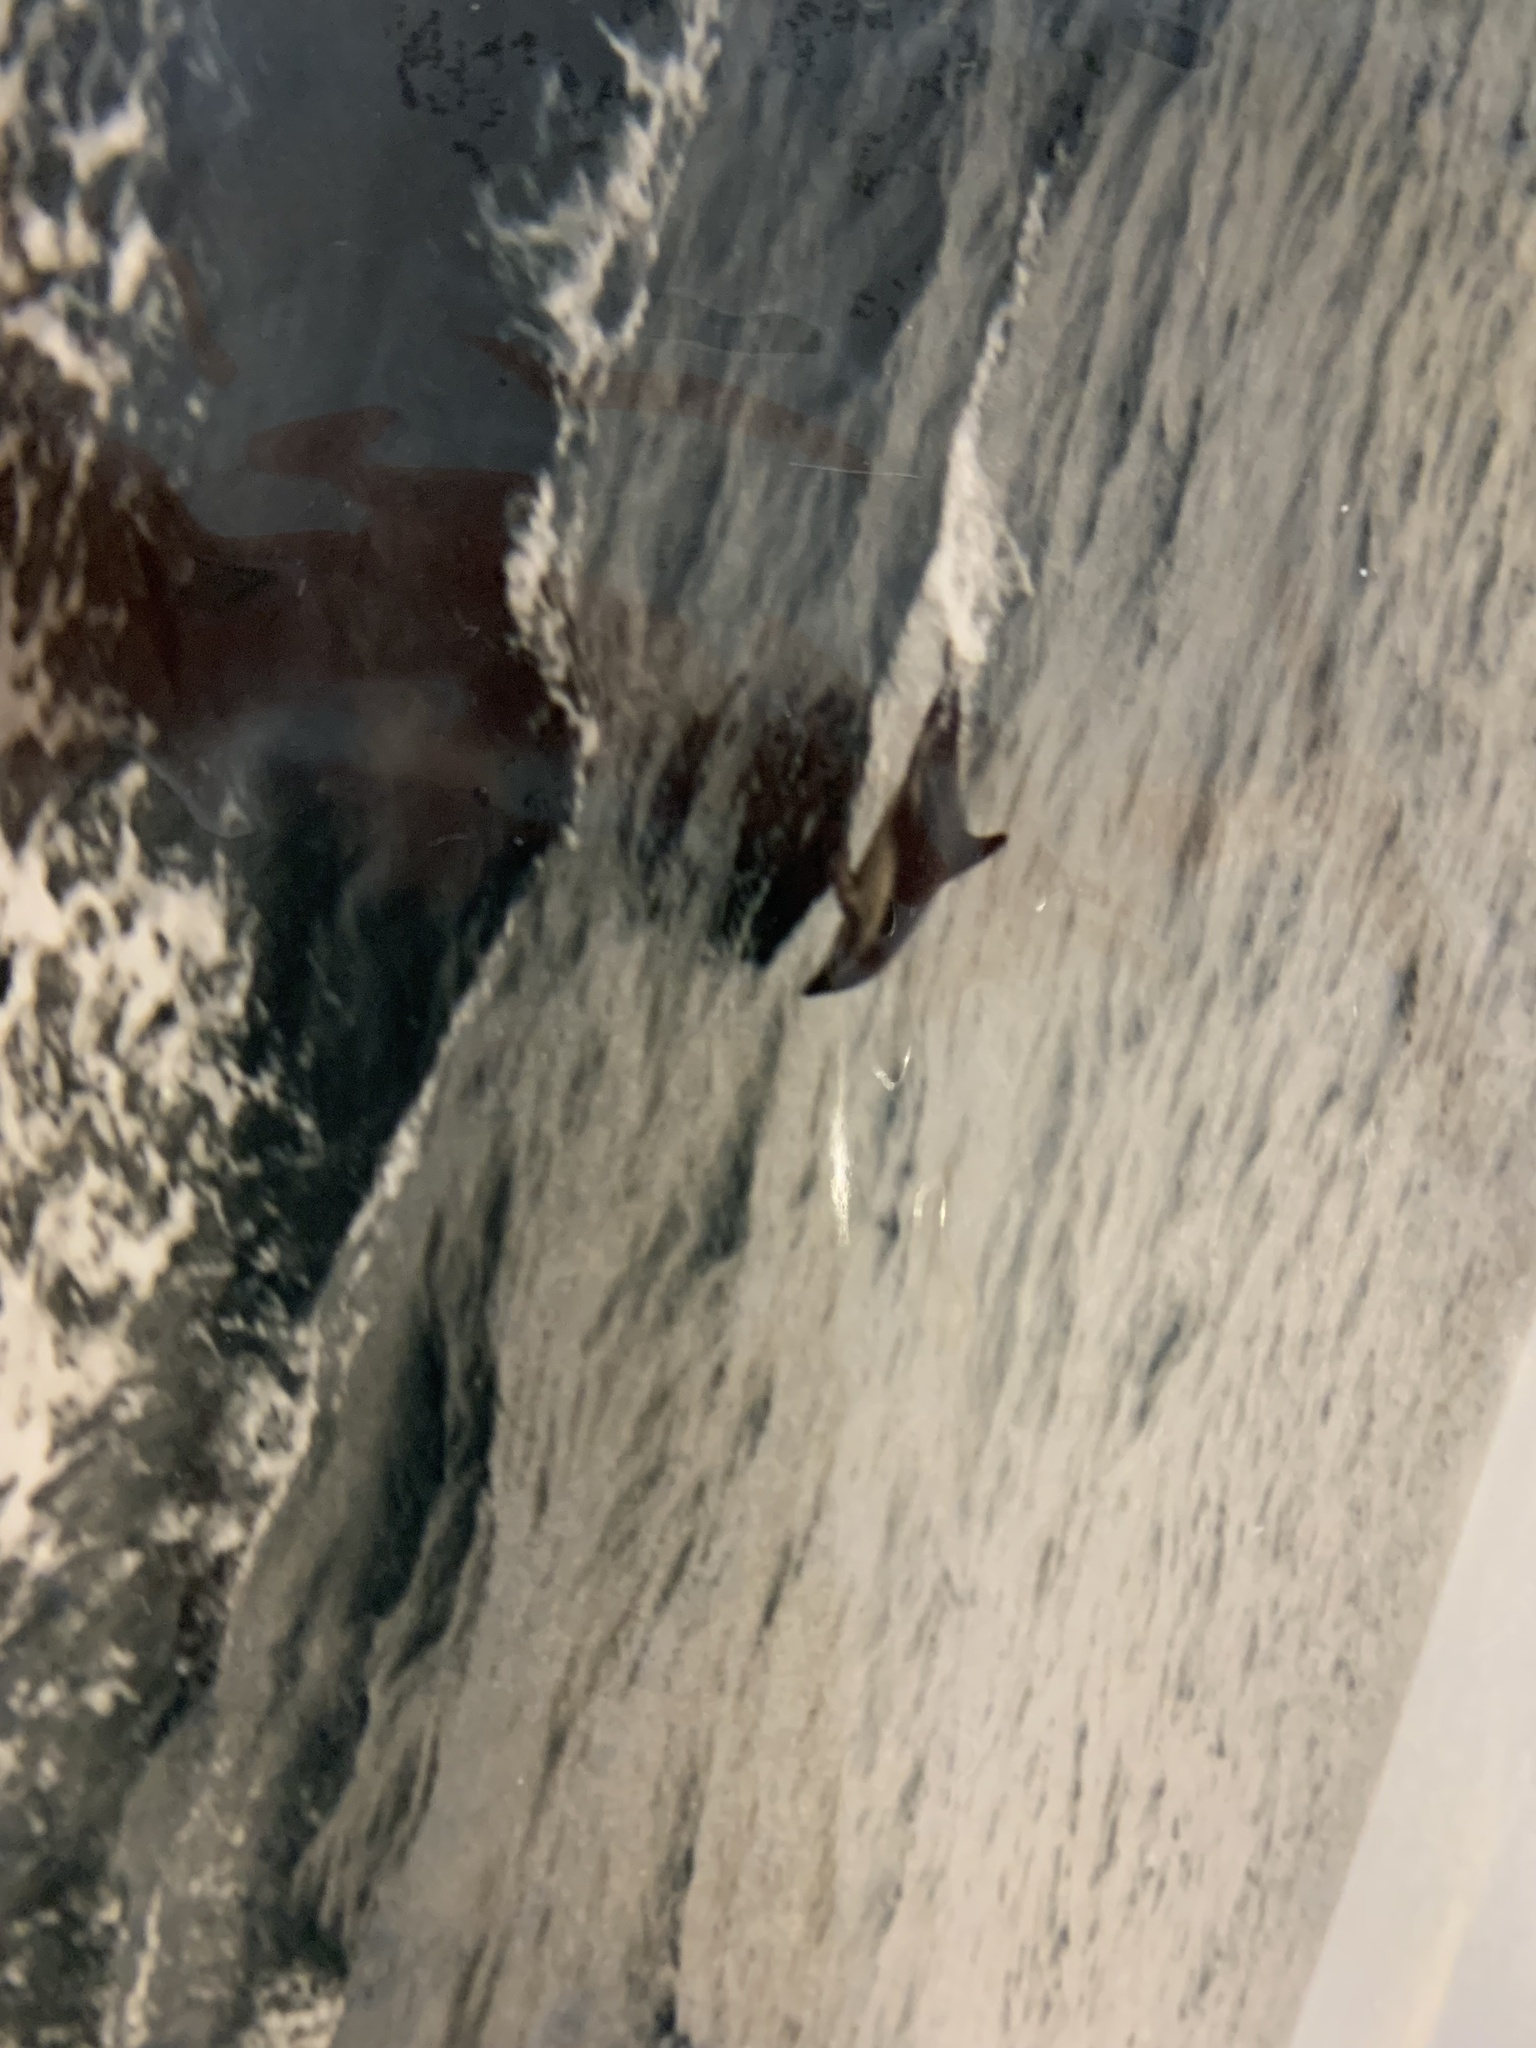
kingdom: Animalia
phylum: Chordata
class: Mammalia
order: Cetacea
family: Delphinidae
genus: Lagenorhynchus
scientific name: Lagenorhynchus obscurus
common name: Dusky dolphin
